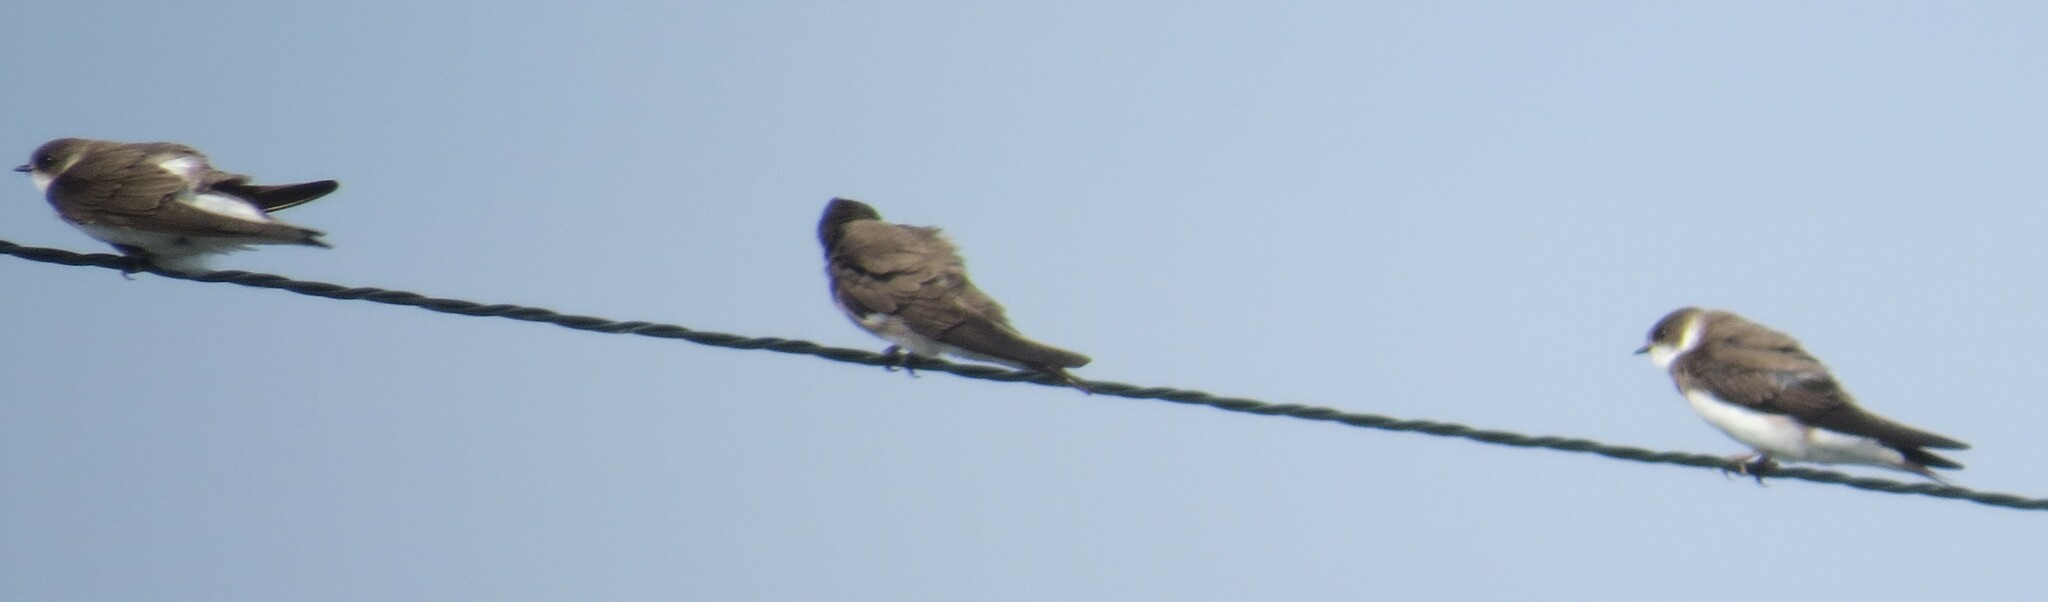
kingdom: Animalia
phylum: Chordata
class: Aves
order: Passeriformes
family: Hirundinidae
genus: Riparia
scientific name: Riparia riparia
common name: Sand martin
